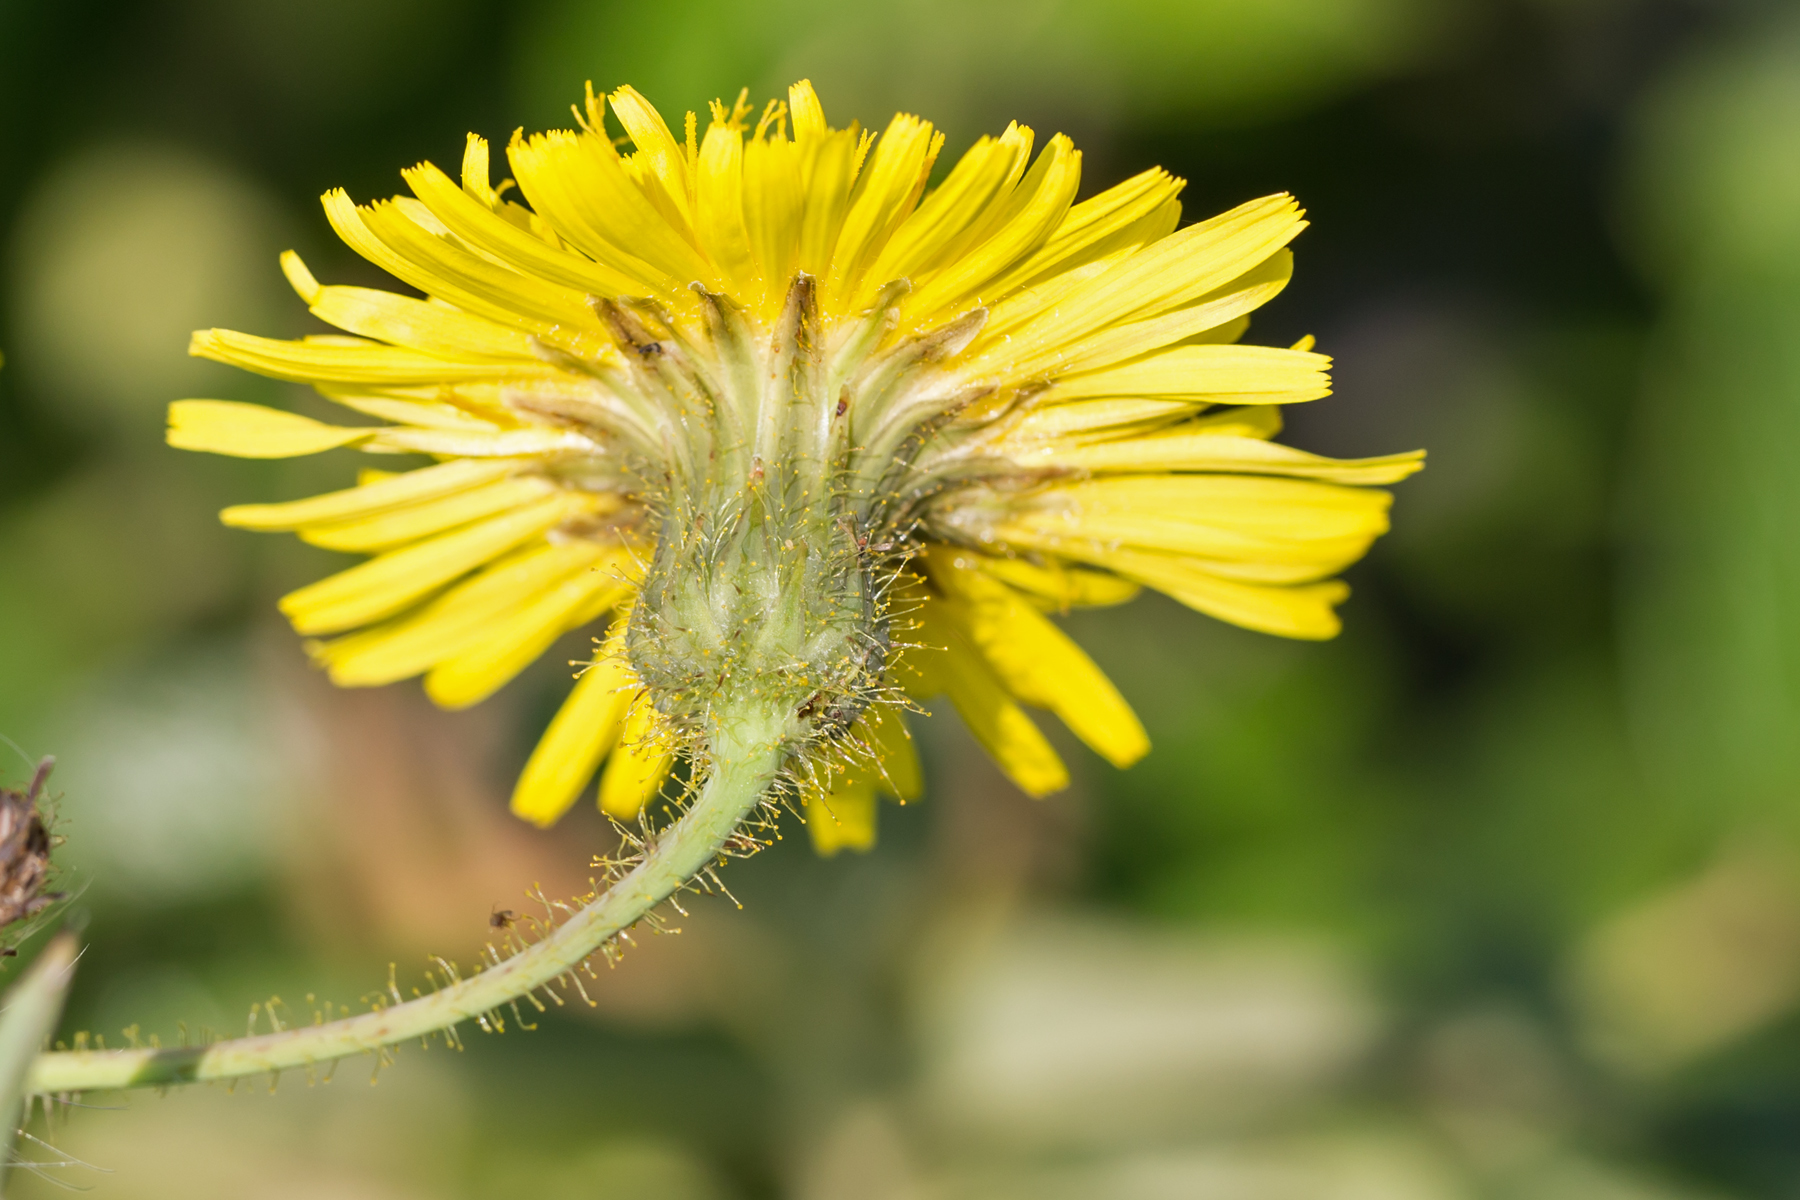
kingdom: Plantae
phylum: Tracheophyta
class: Magnoliopsida
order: Asterales
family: Asteraceae
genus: Sonchus
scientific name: Sonchus arvensis
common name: Perennial sow-thistle
